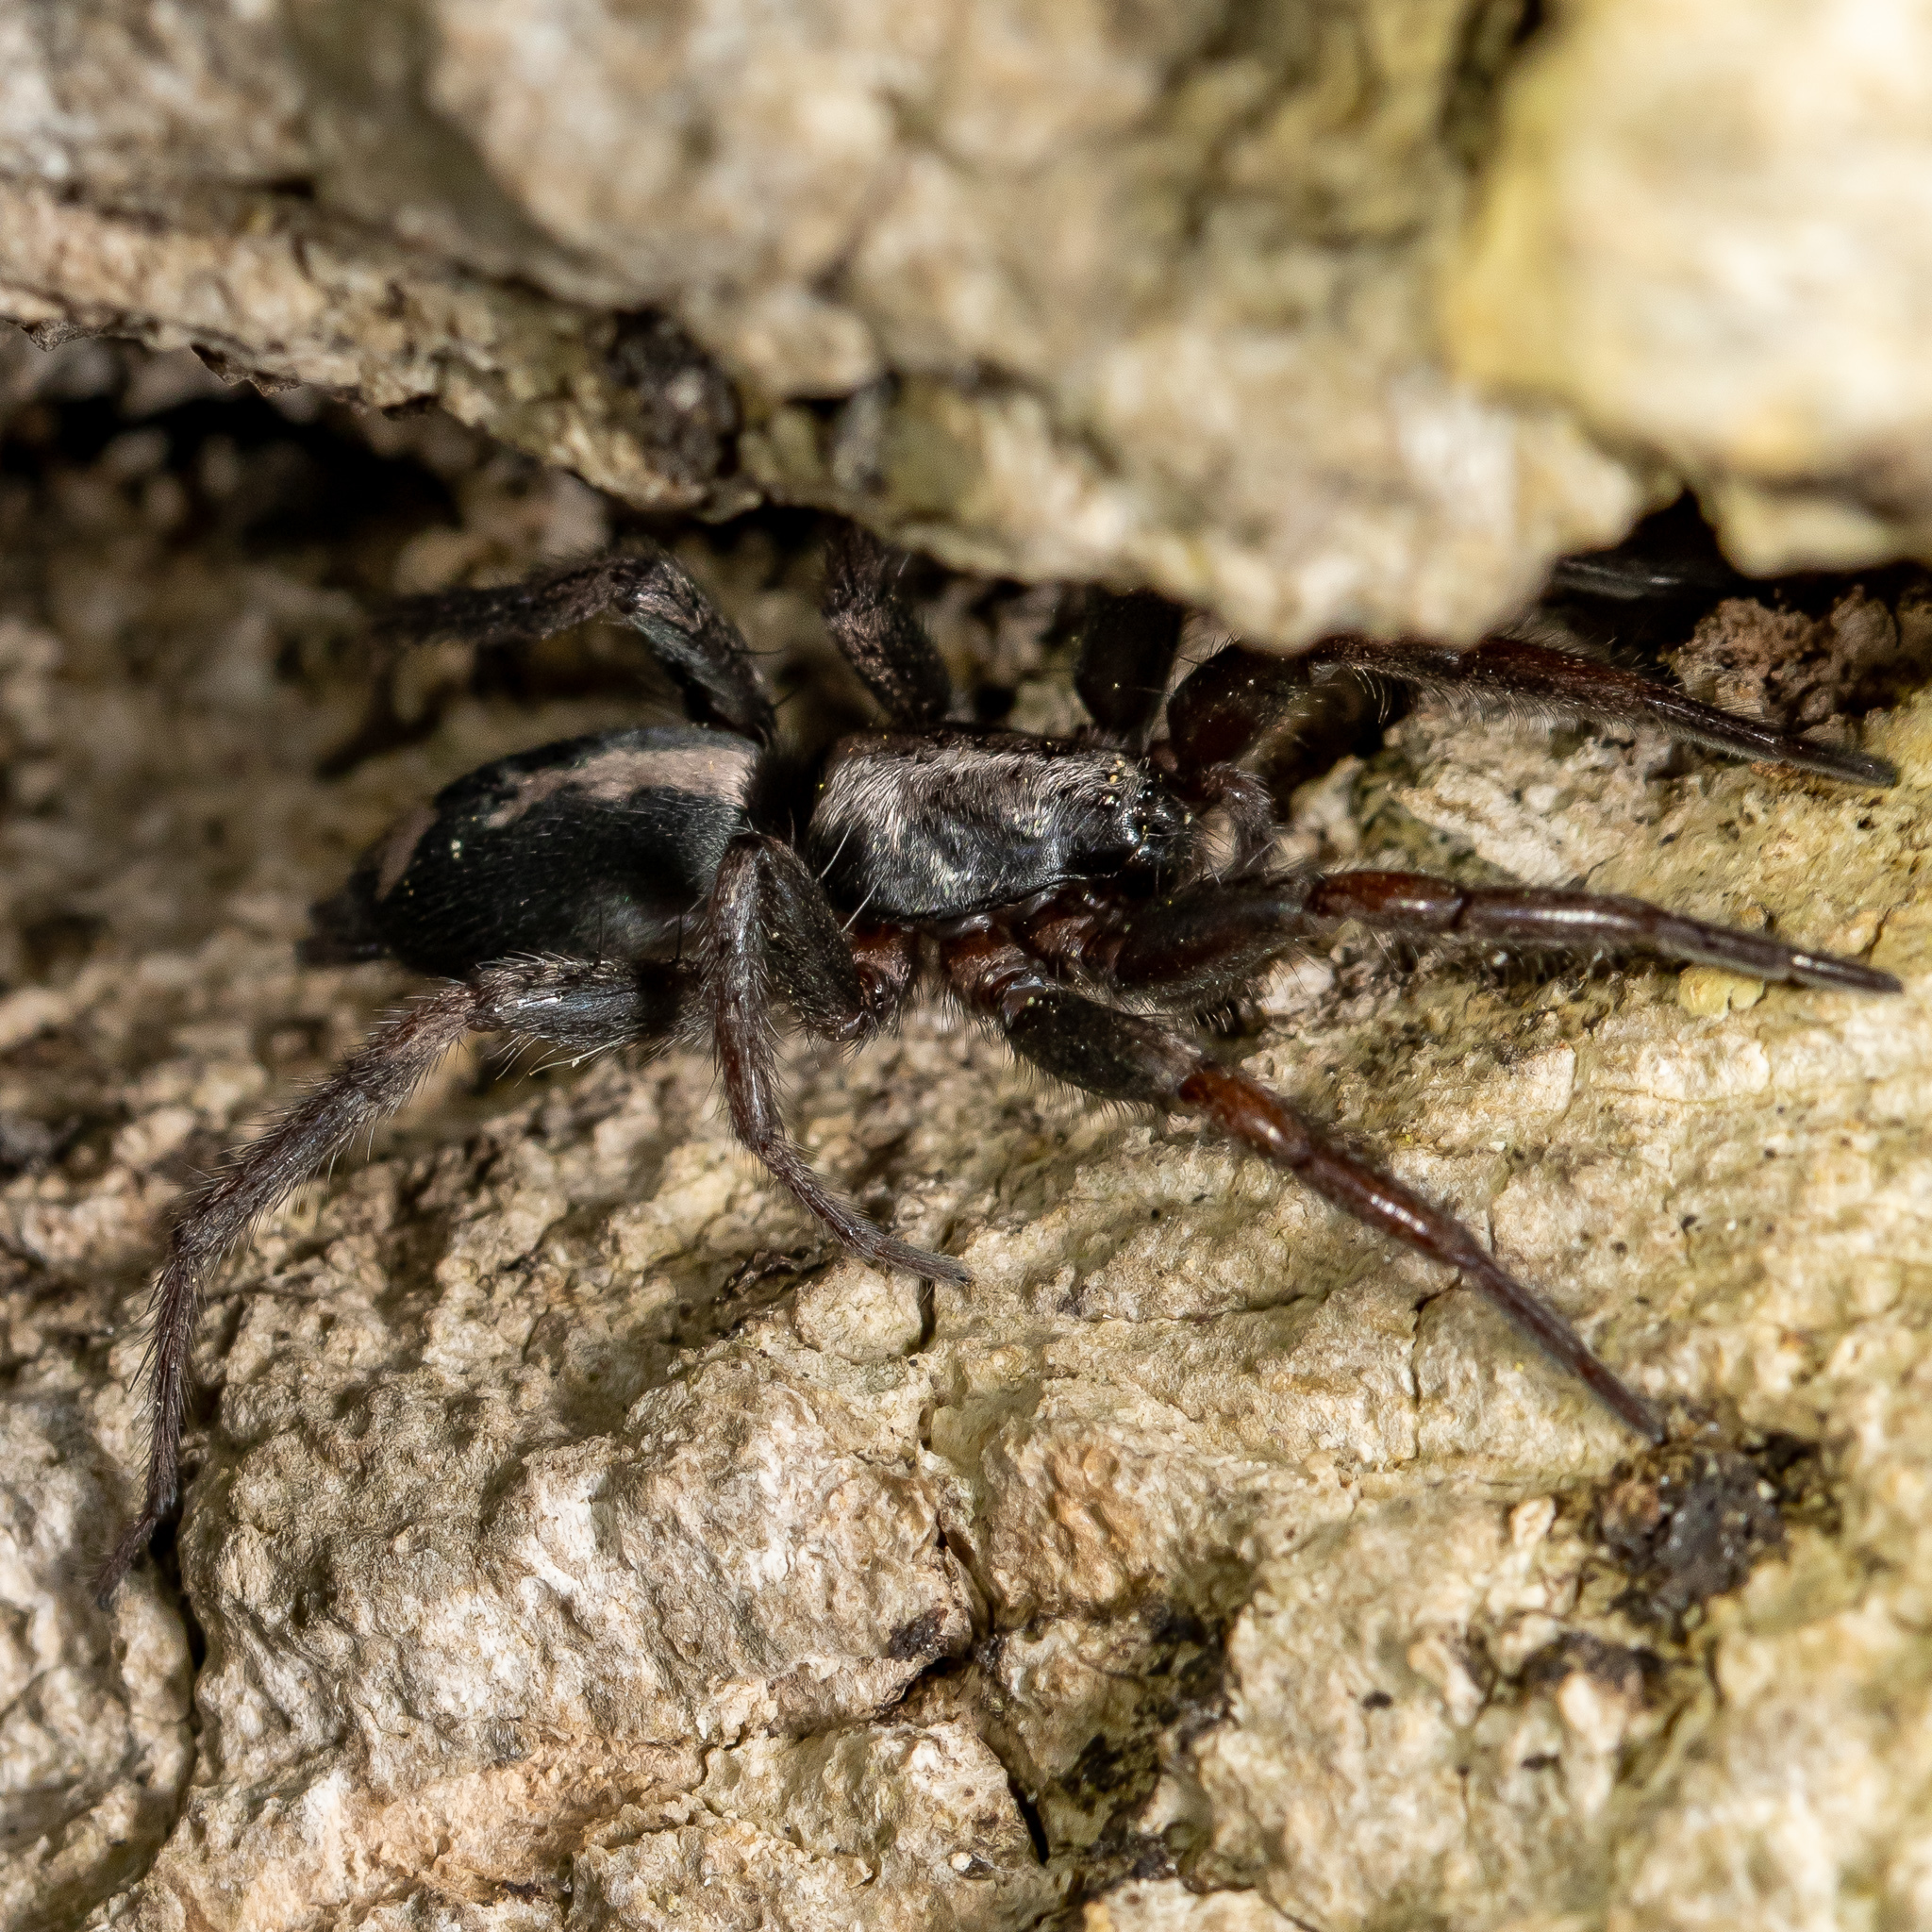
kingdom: Animalia
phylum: Arthropoda
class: Arachnida
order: Araneae
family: Gnaphosidae
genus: Herpyllus
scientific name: Herpyllus ecclesiasticus
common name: Eastern parson spider
